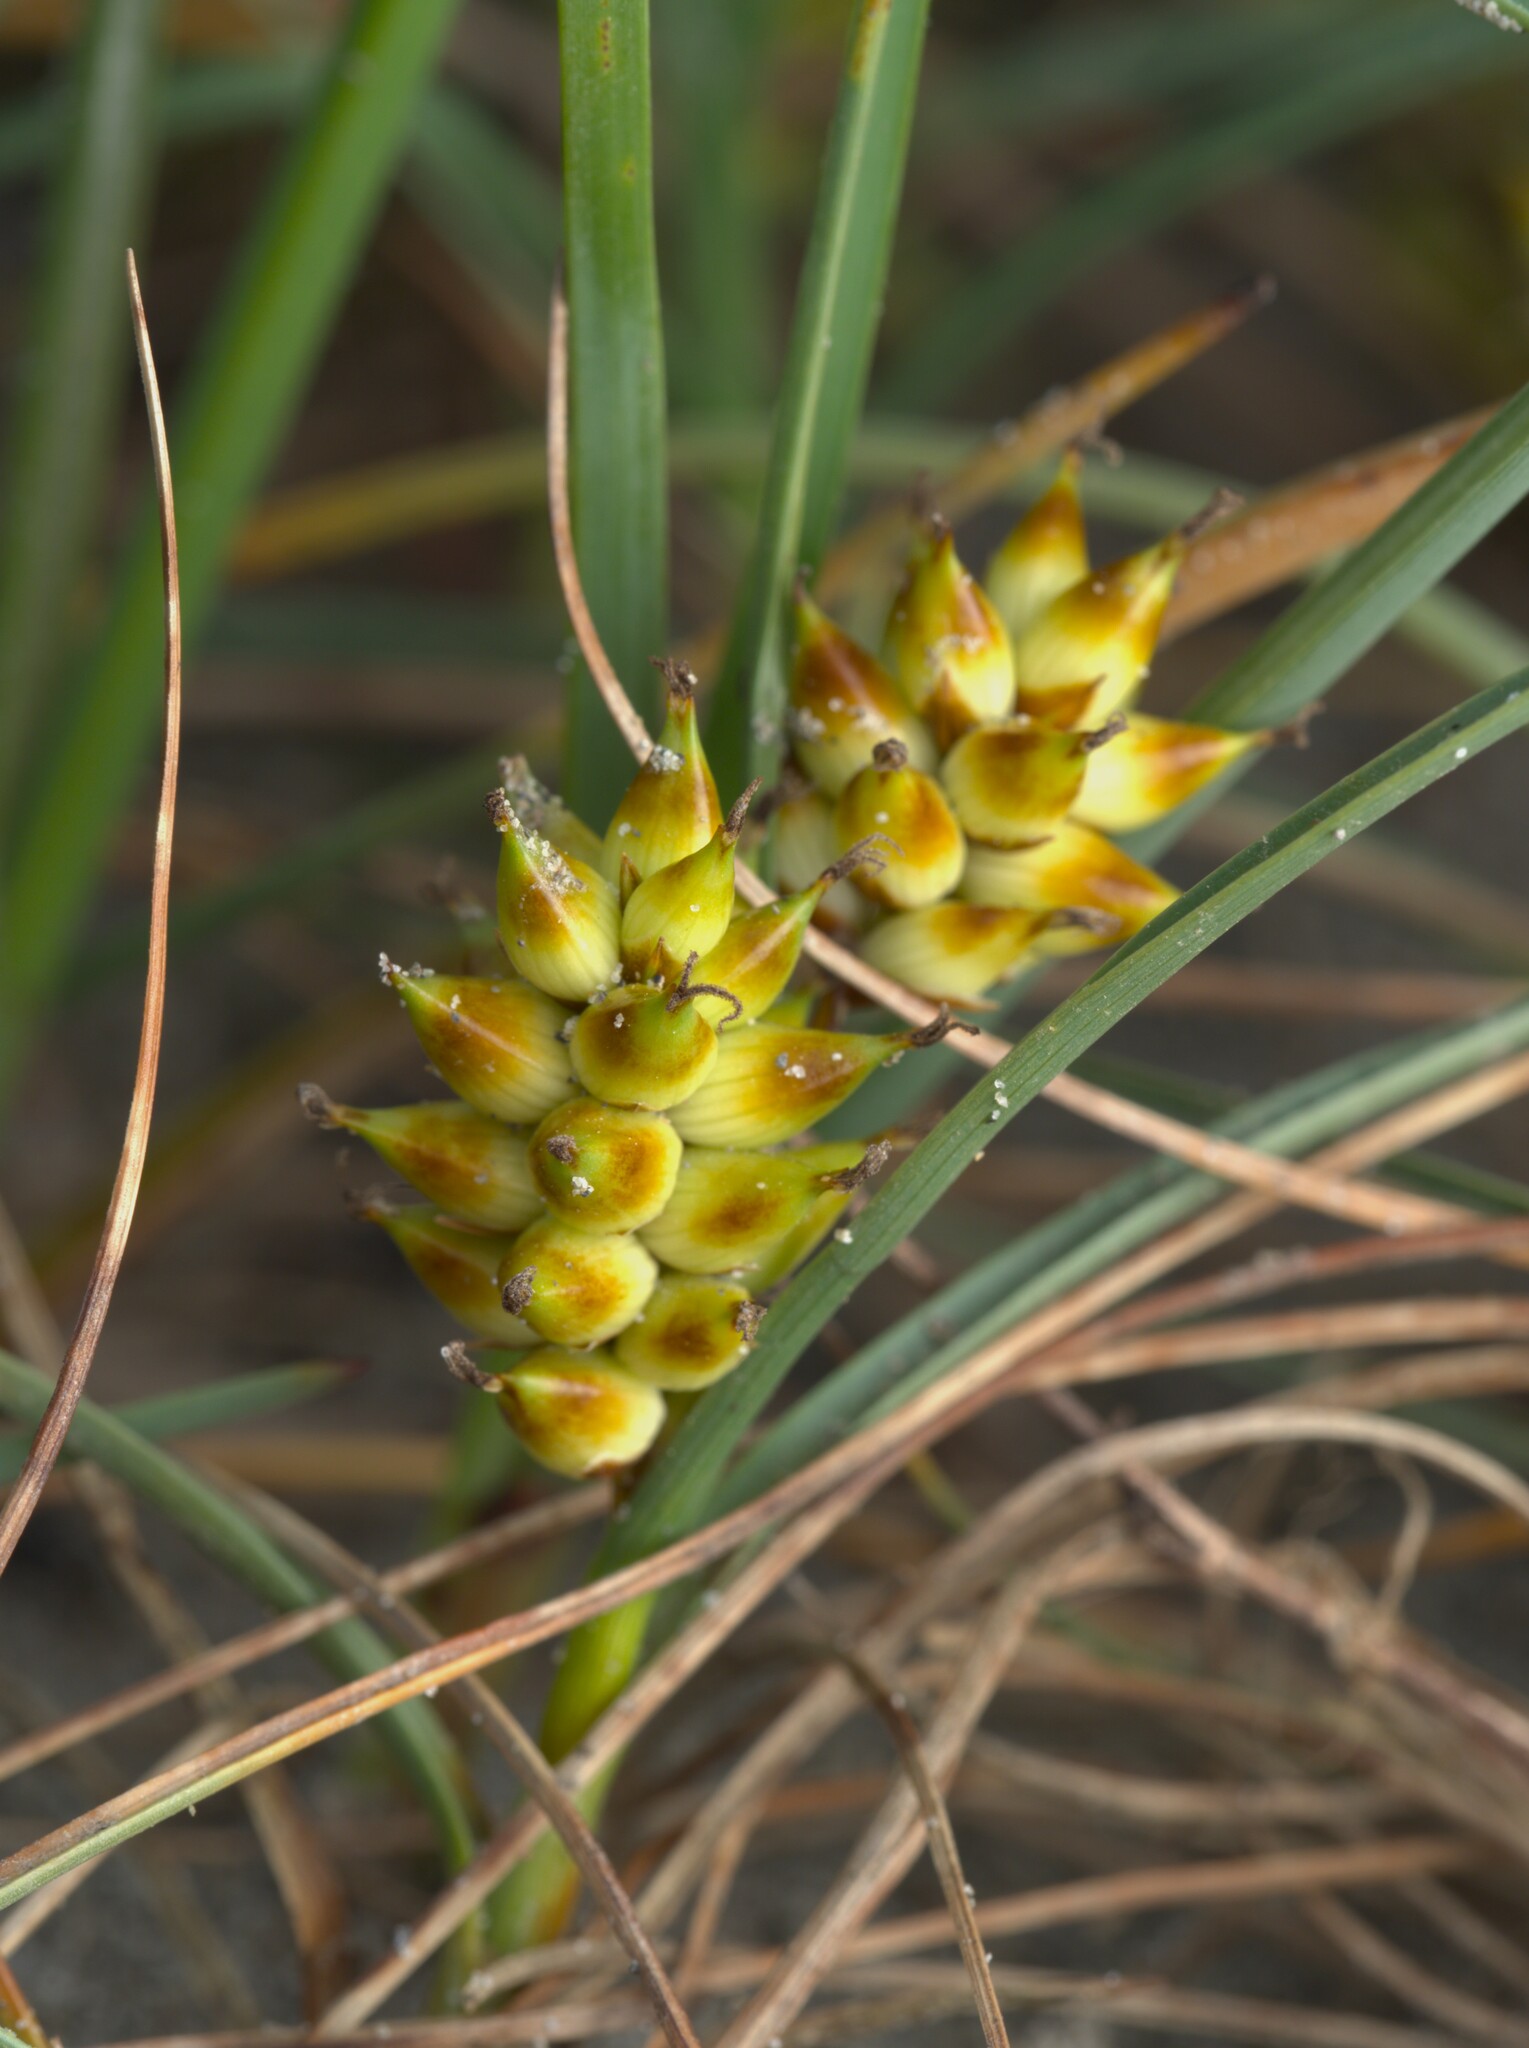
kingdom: Plantae
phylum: Tracheophyta
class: Liliopsida
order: Poales
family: Cyperaceae
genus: Carex
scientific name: Carex pumila
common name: Dwarf sedge
